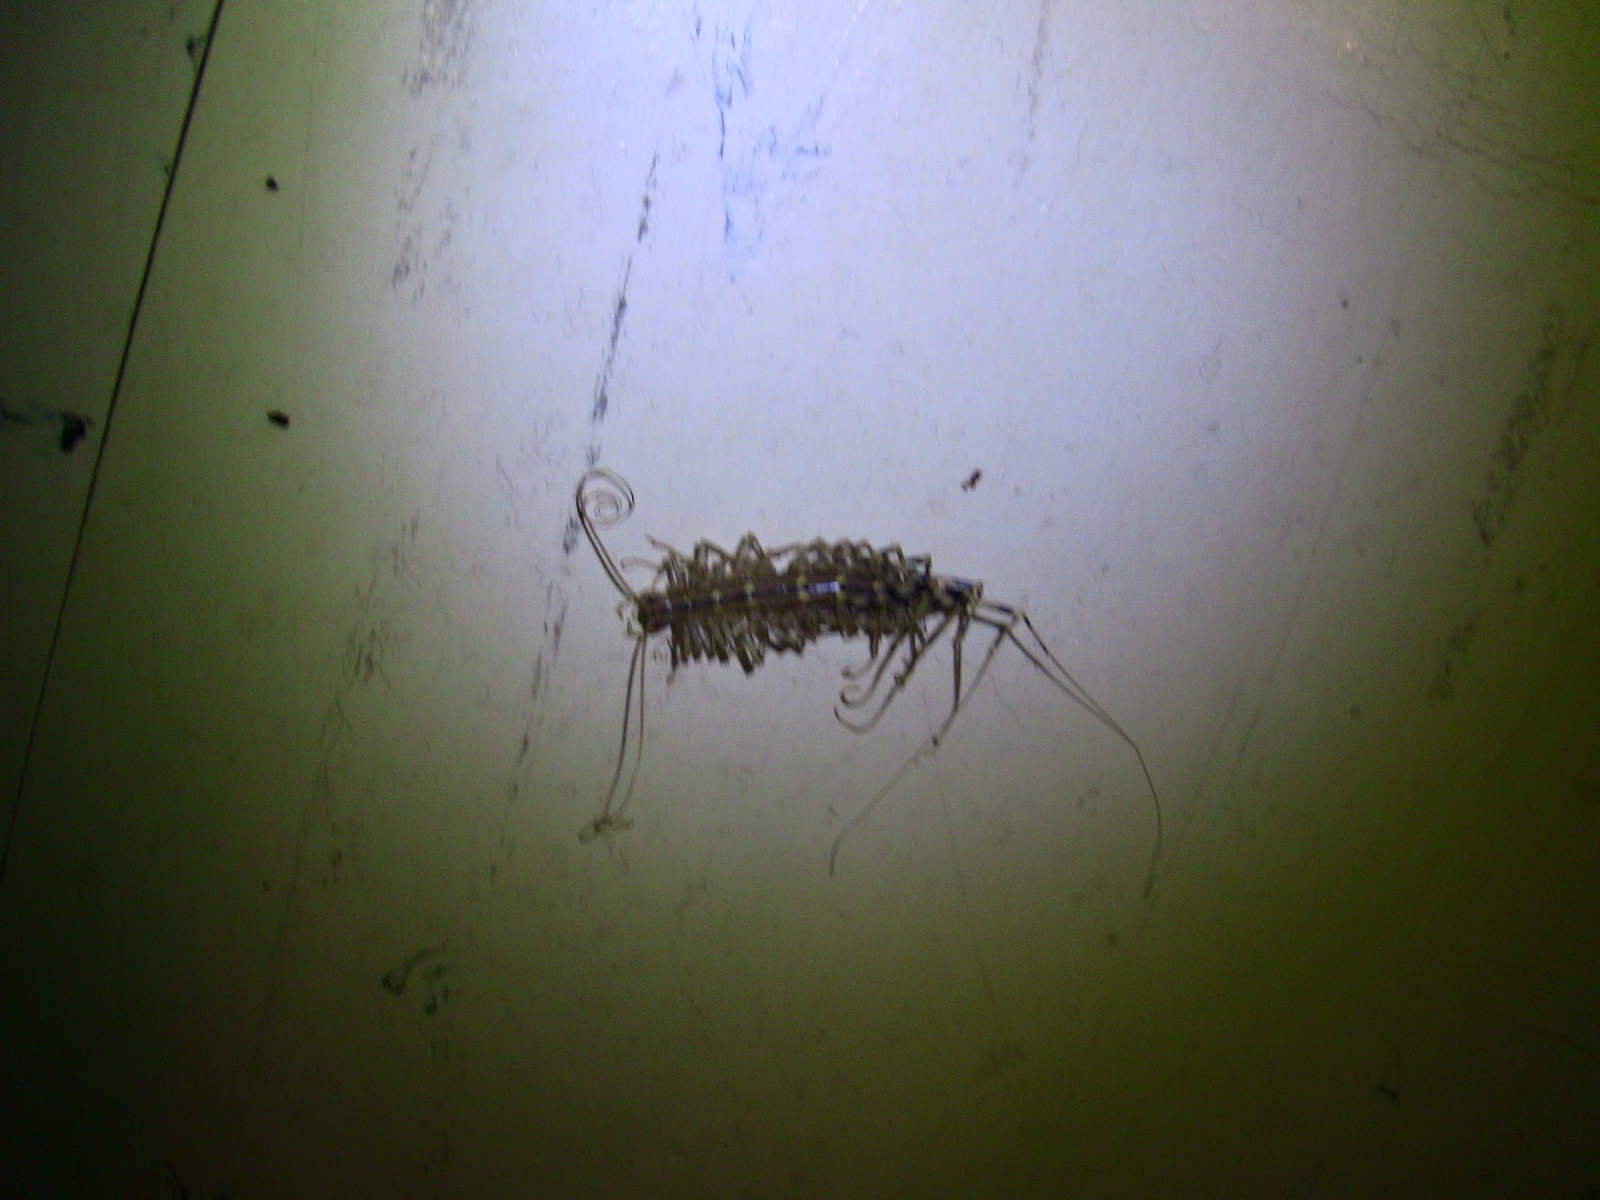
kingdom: Animalia
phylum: Arthropoda
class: Chilopoda
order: Scutigeromorpha
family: Scutigeridae
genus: Scutigera
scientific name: Scutigera coleoptrata
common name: House centipede
